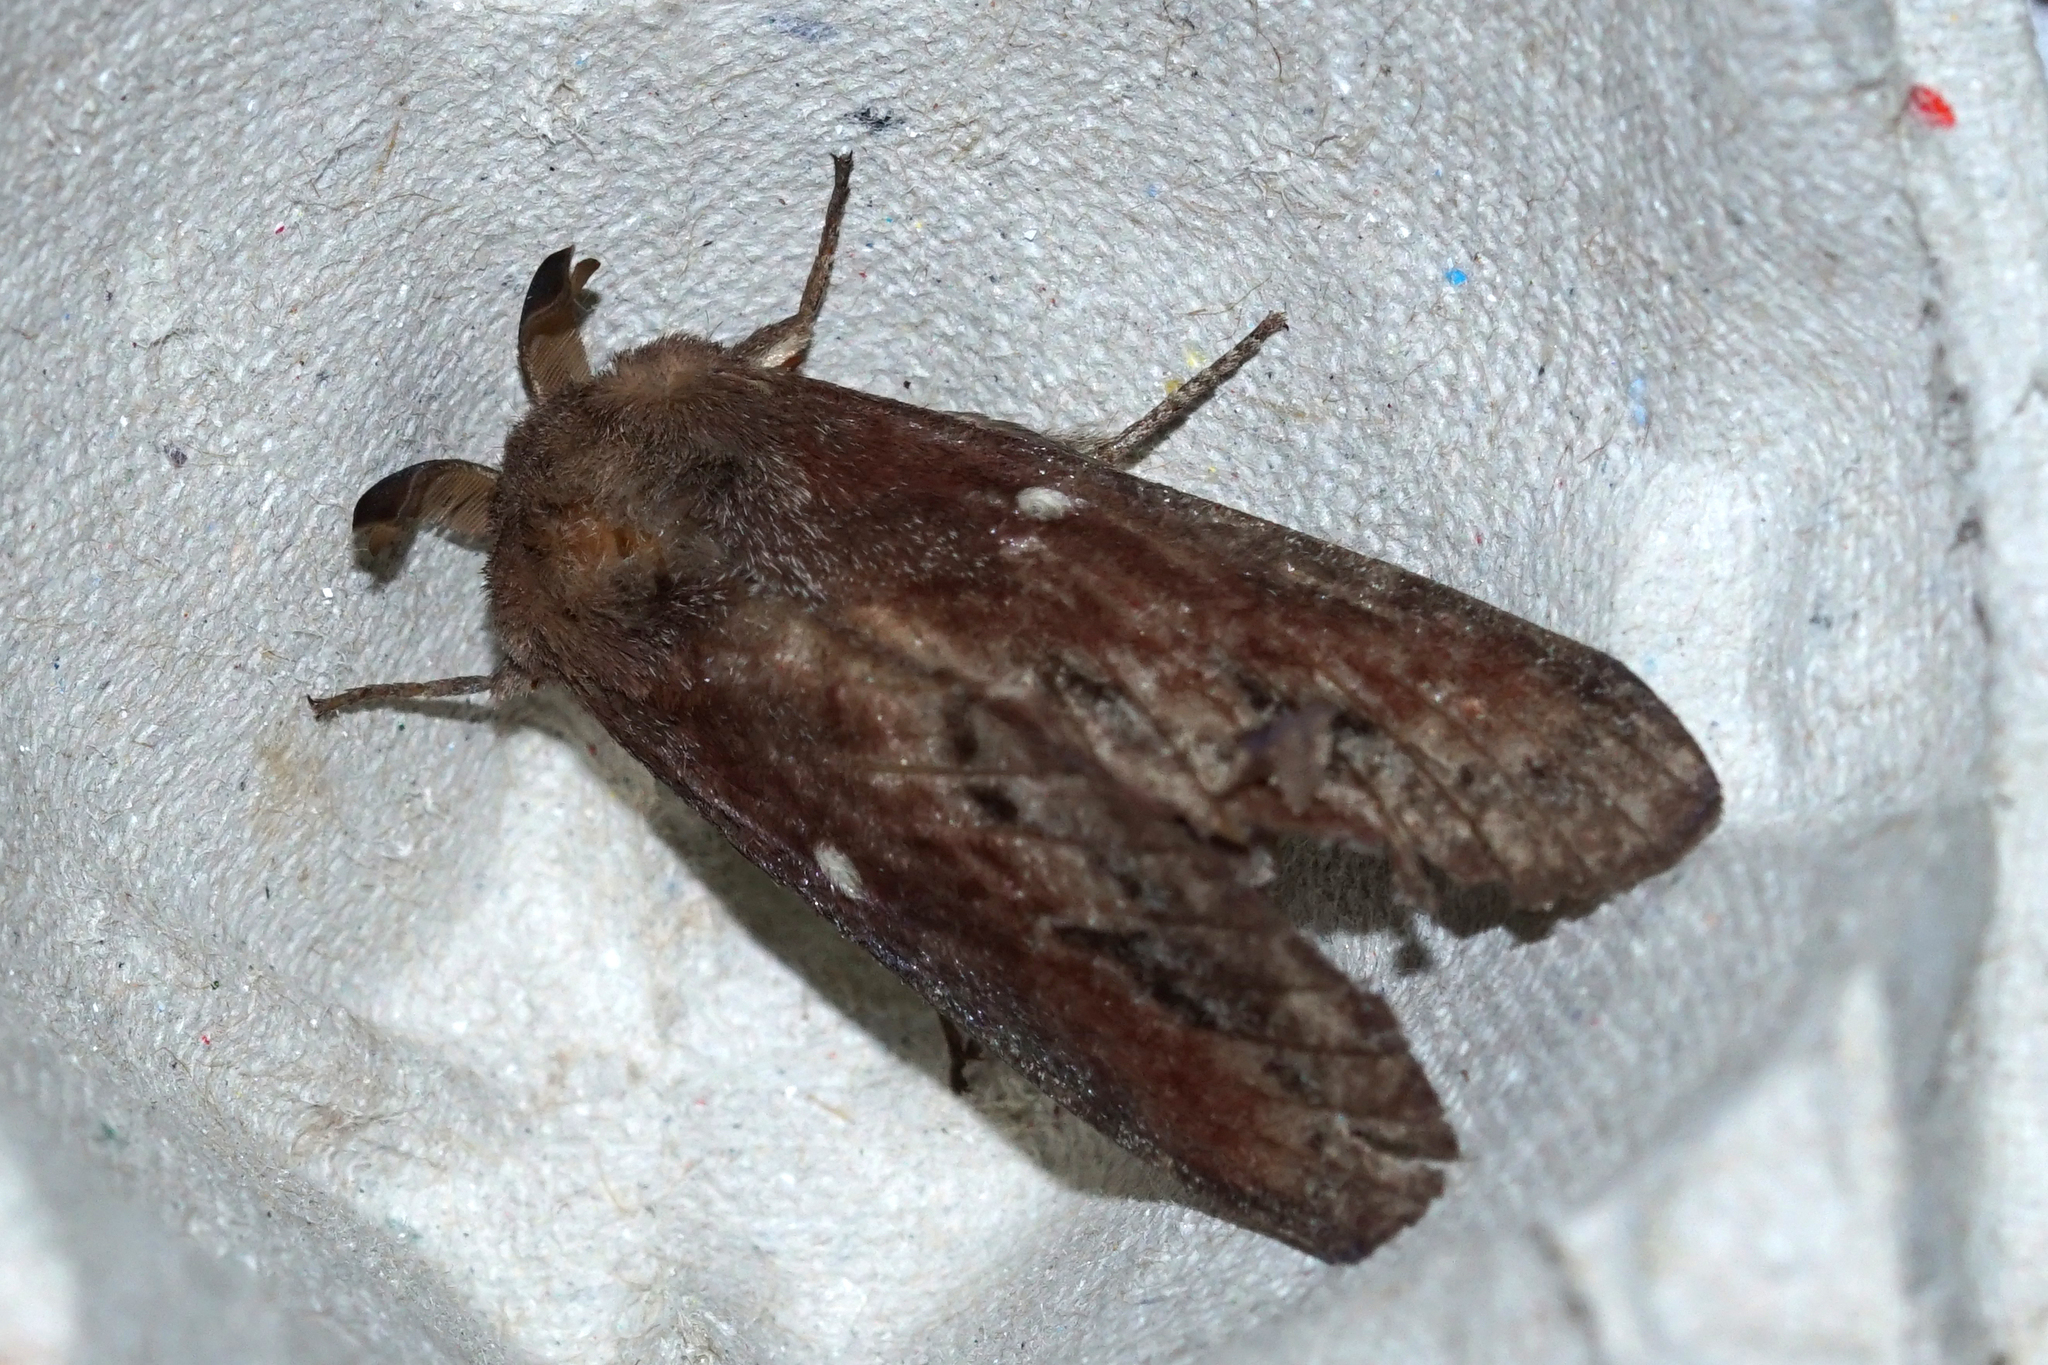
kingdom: Animalia
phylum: Arthropoda
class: Insecta
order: Lepidoptera
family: Lasiocampidae
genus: Dendrolimus
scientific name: Dendrolimus pini
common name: Pine-tree lappet
